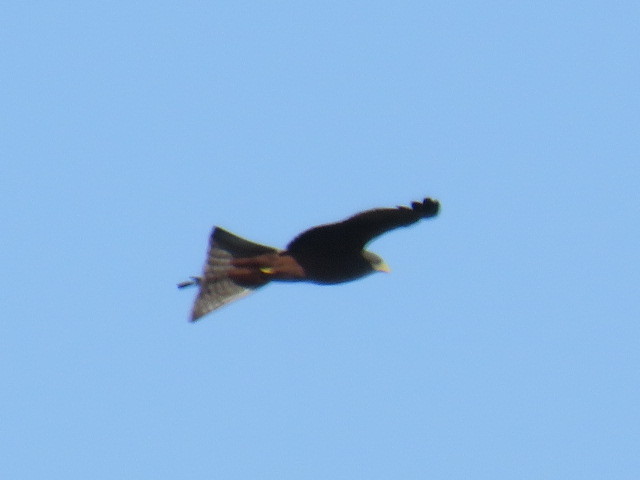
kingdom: Animalia
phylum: Chordata
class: Aves
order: Accipitriformes
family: Accipitridae
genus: Milvus
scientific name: Milvus migrans
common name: Black kite
